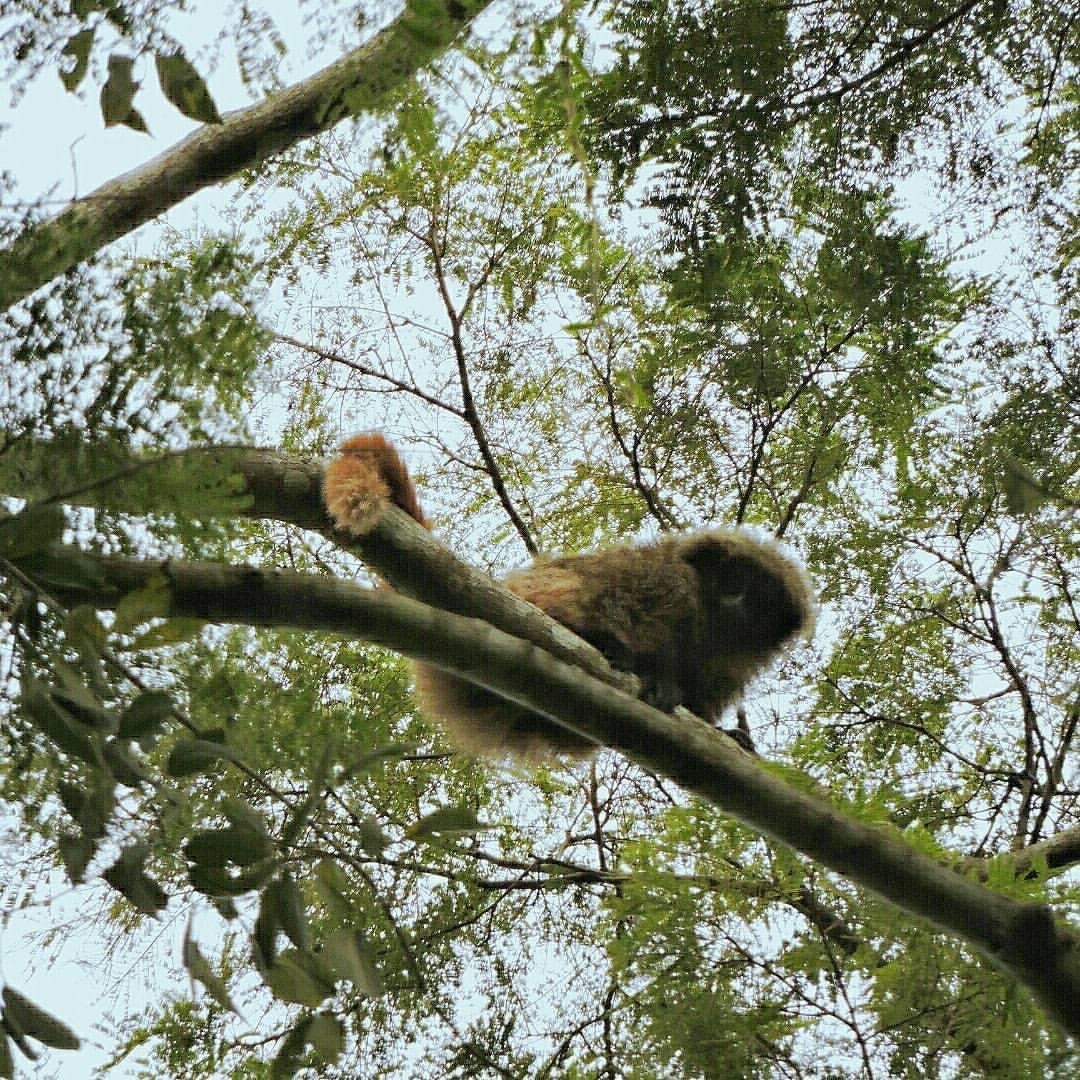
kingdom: Animalia
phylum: Chordata
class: Mammalia
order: Primates
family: Pitheciidae
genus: Callicebus
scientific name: Callicebus
